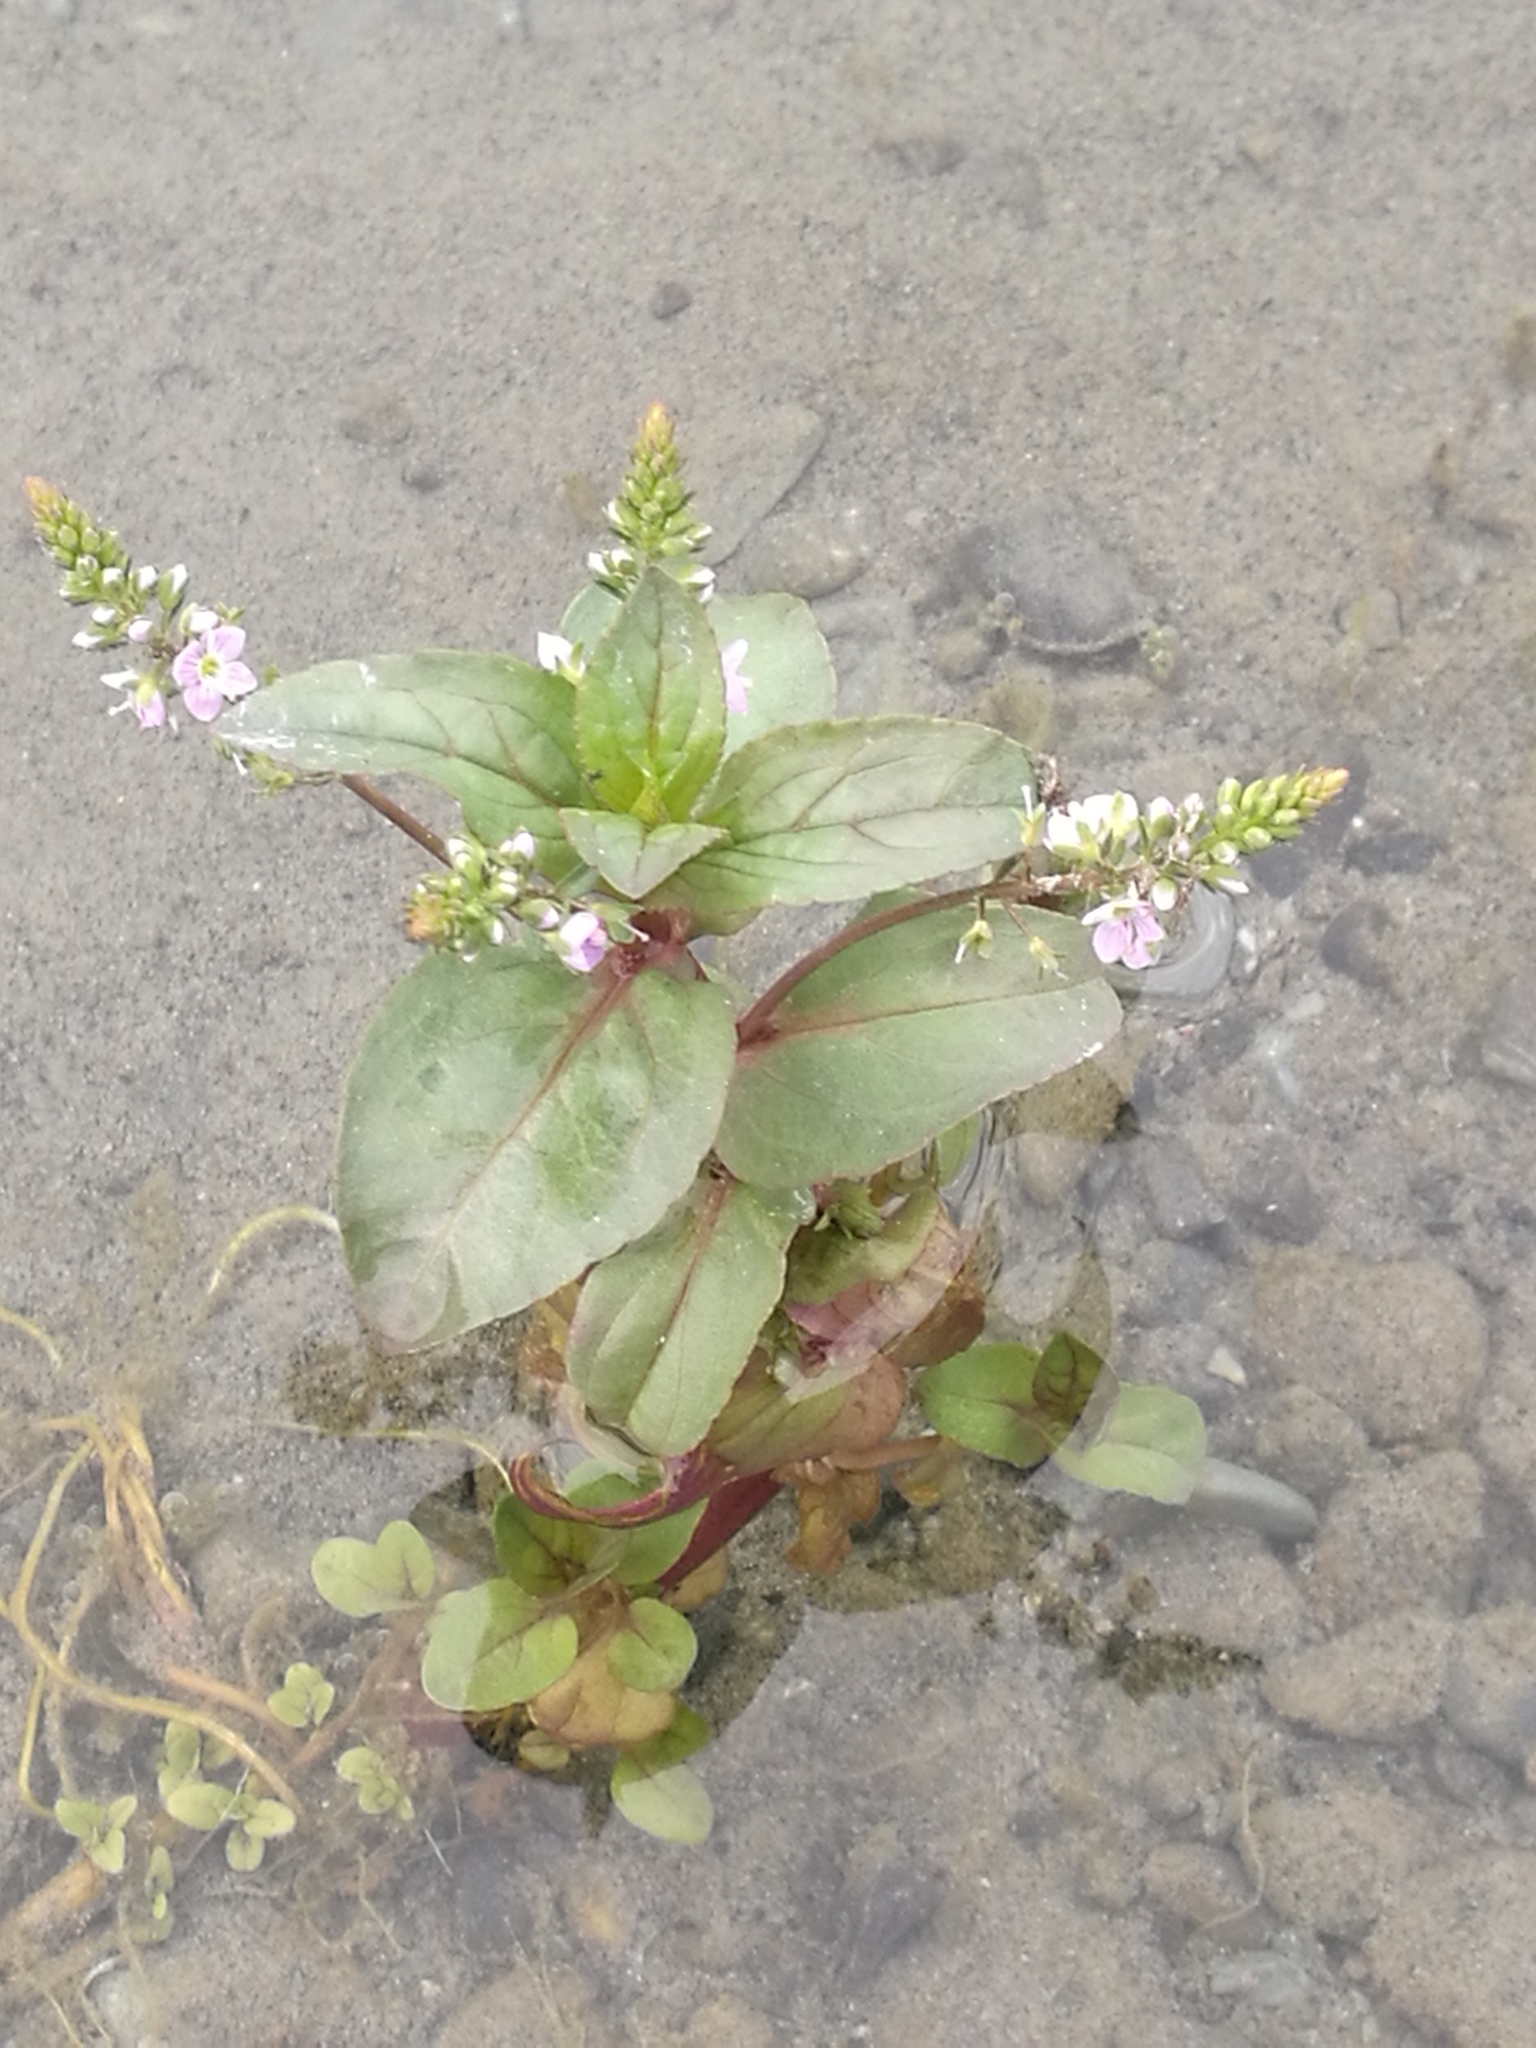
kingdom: Plantae
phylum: Tracheophyta
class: Magnoliopsida
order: Lamiales
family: Plantaginaceae
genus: Veronica
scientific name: Veronica anagallis-aquatica
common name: Water speedwell
